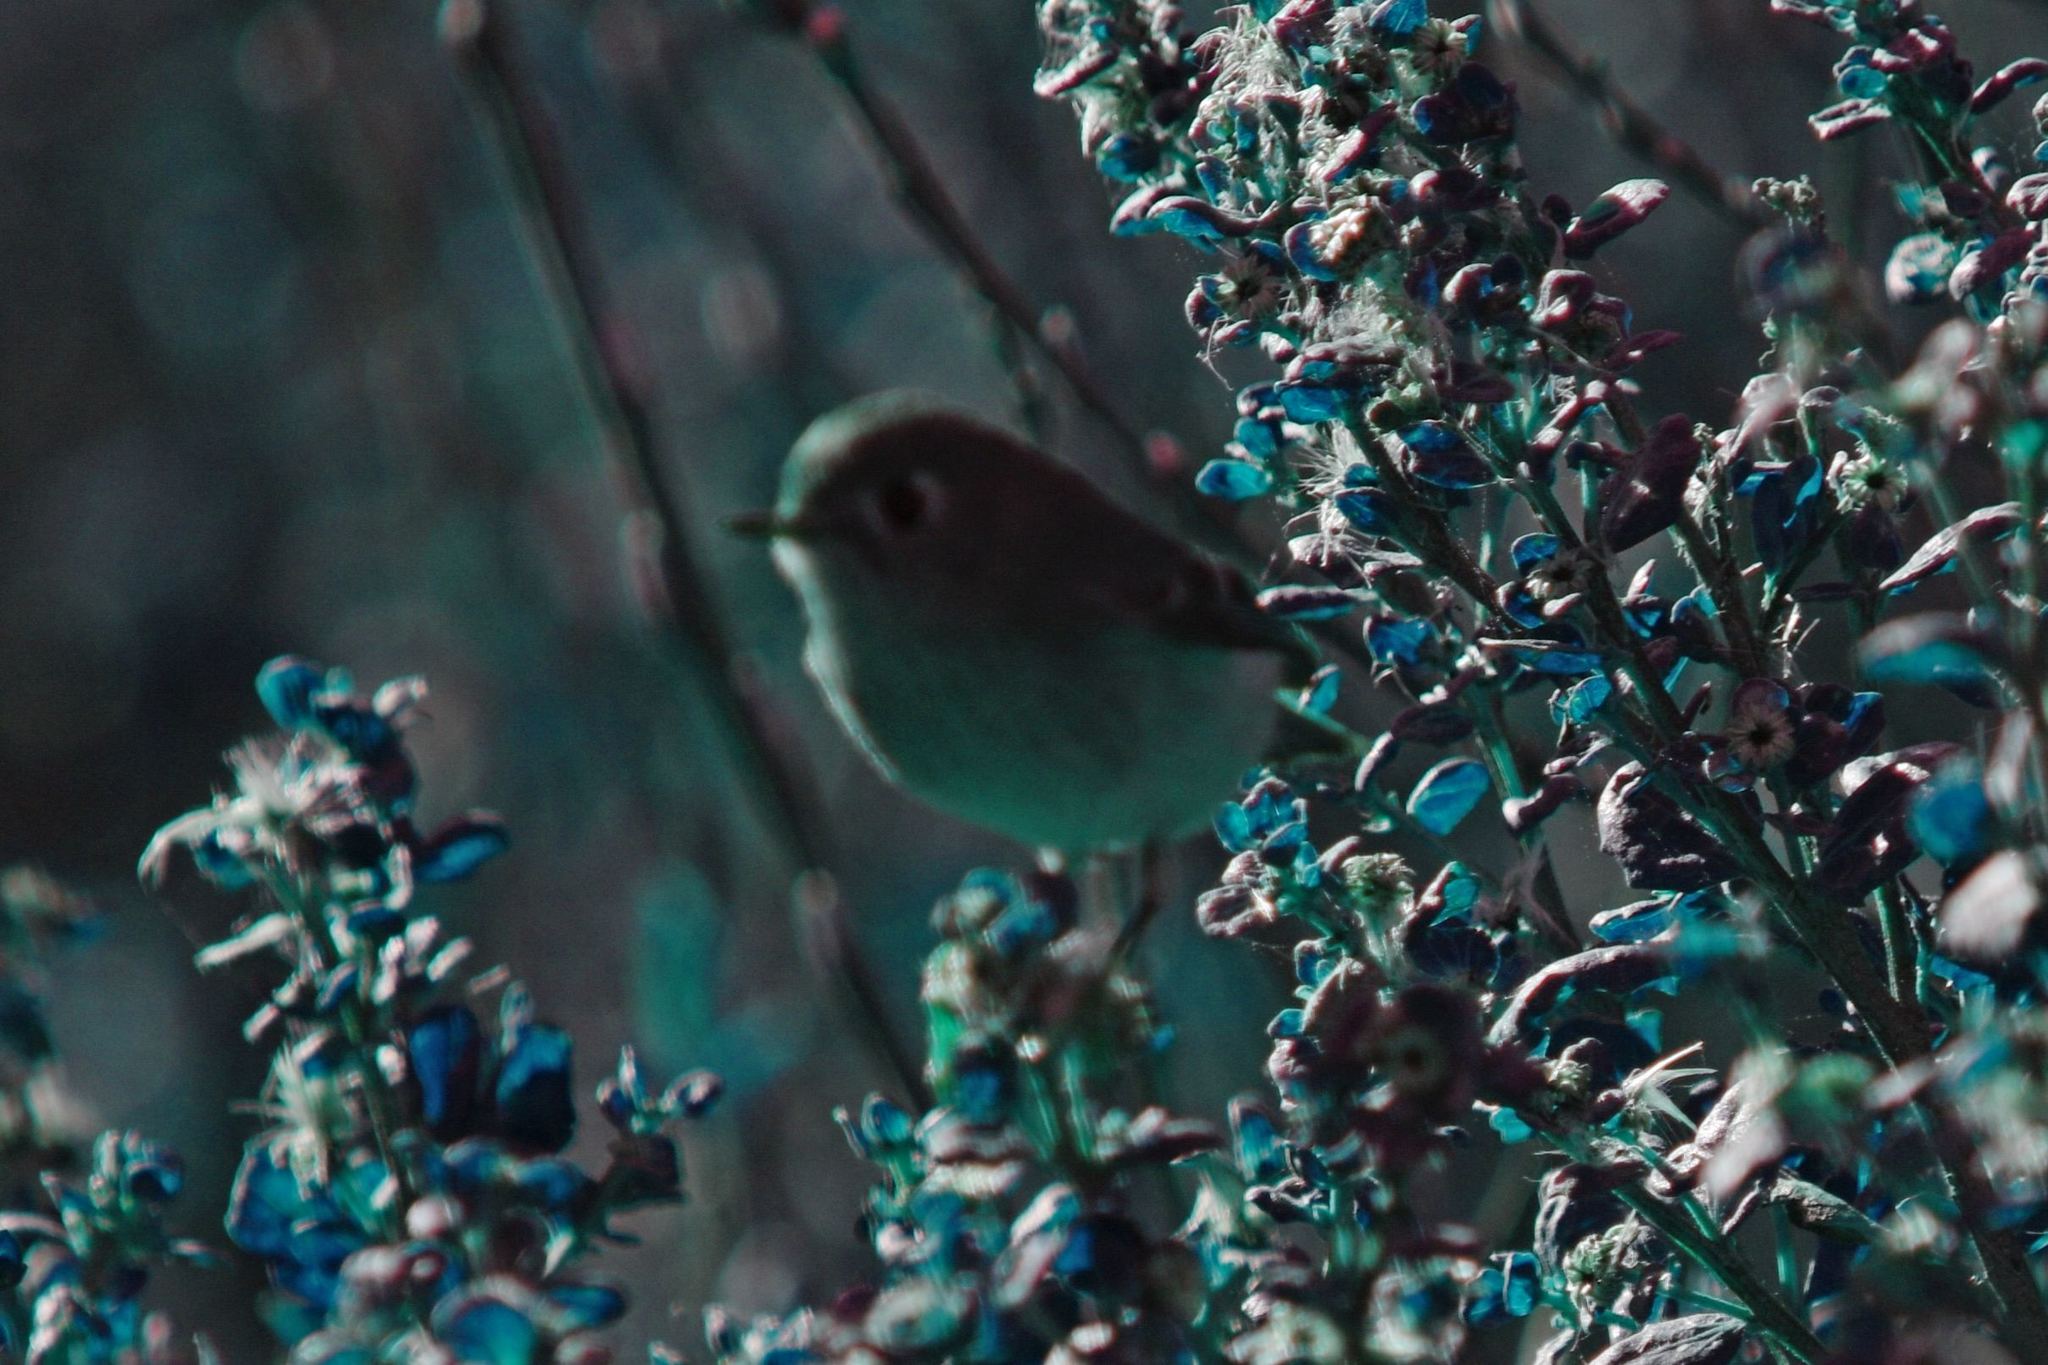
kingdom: Animalia
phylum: Chordata
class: Aves
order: Passeriformes
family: Regulidae
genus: Regulus
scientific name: Regulus calendula
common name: Ruby-crowned kinglet
